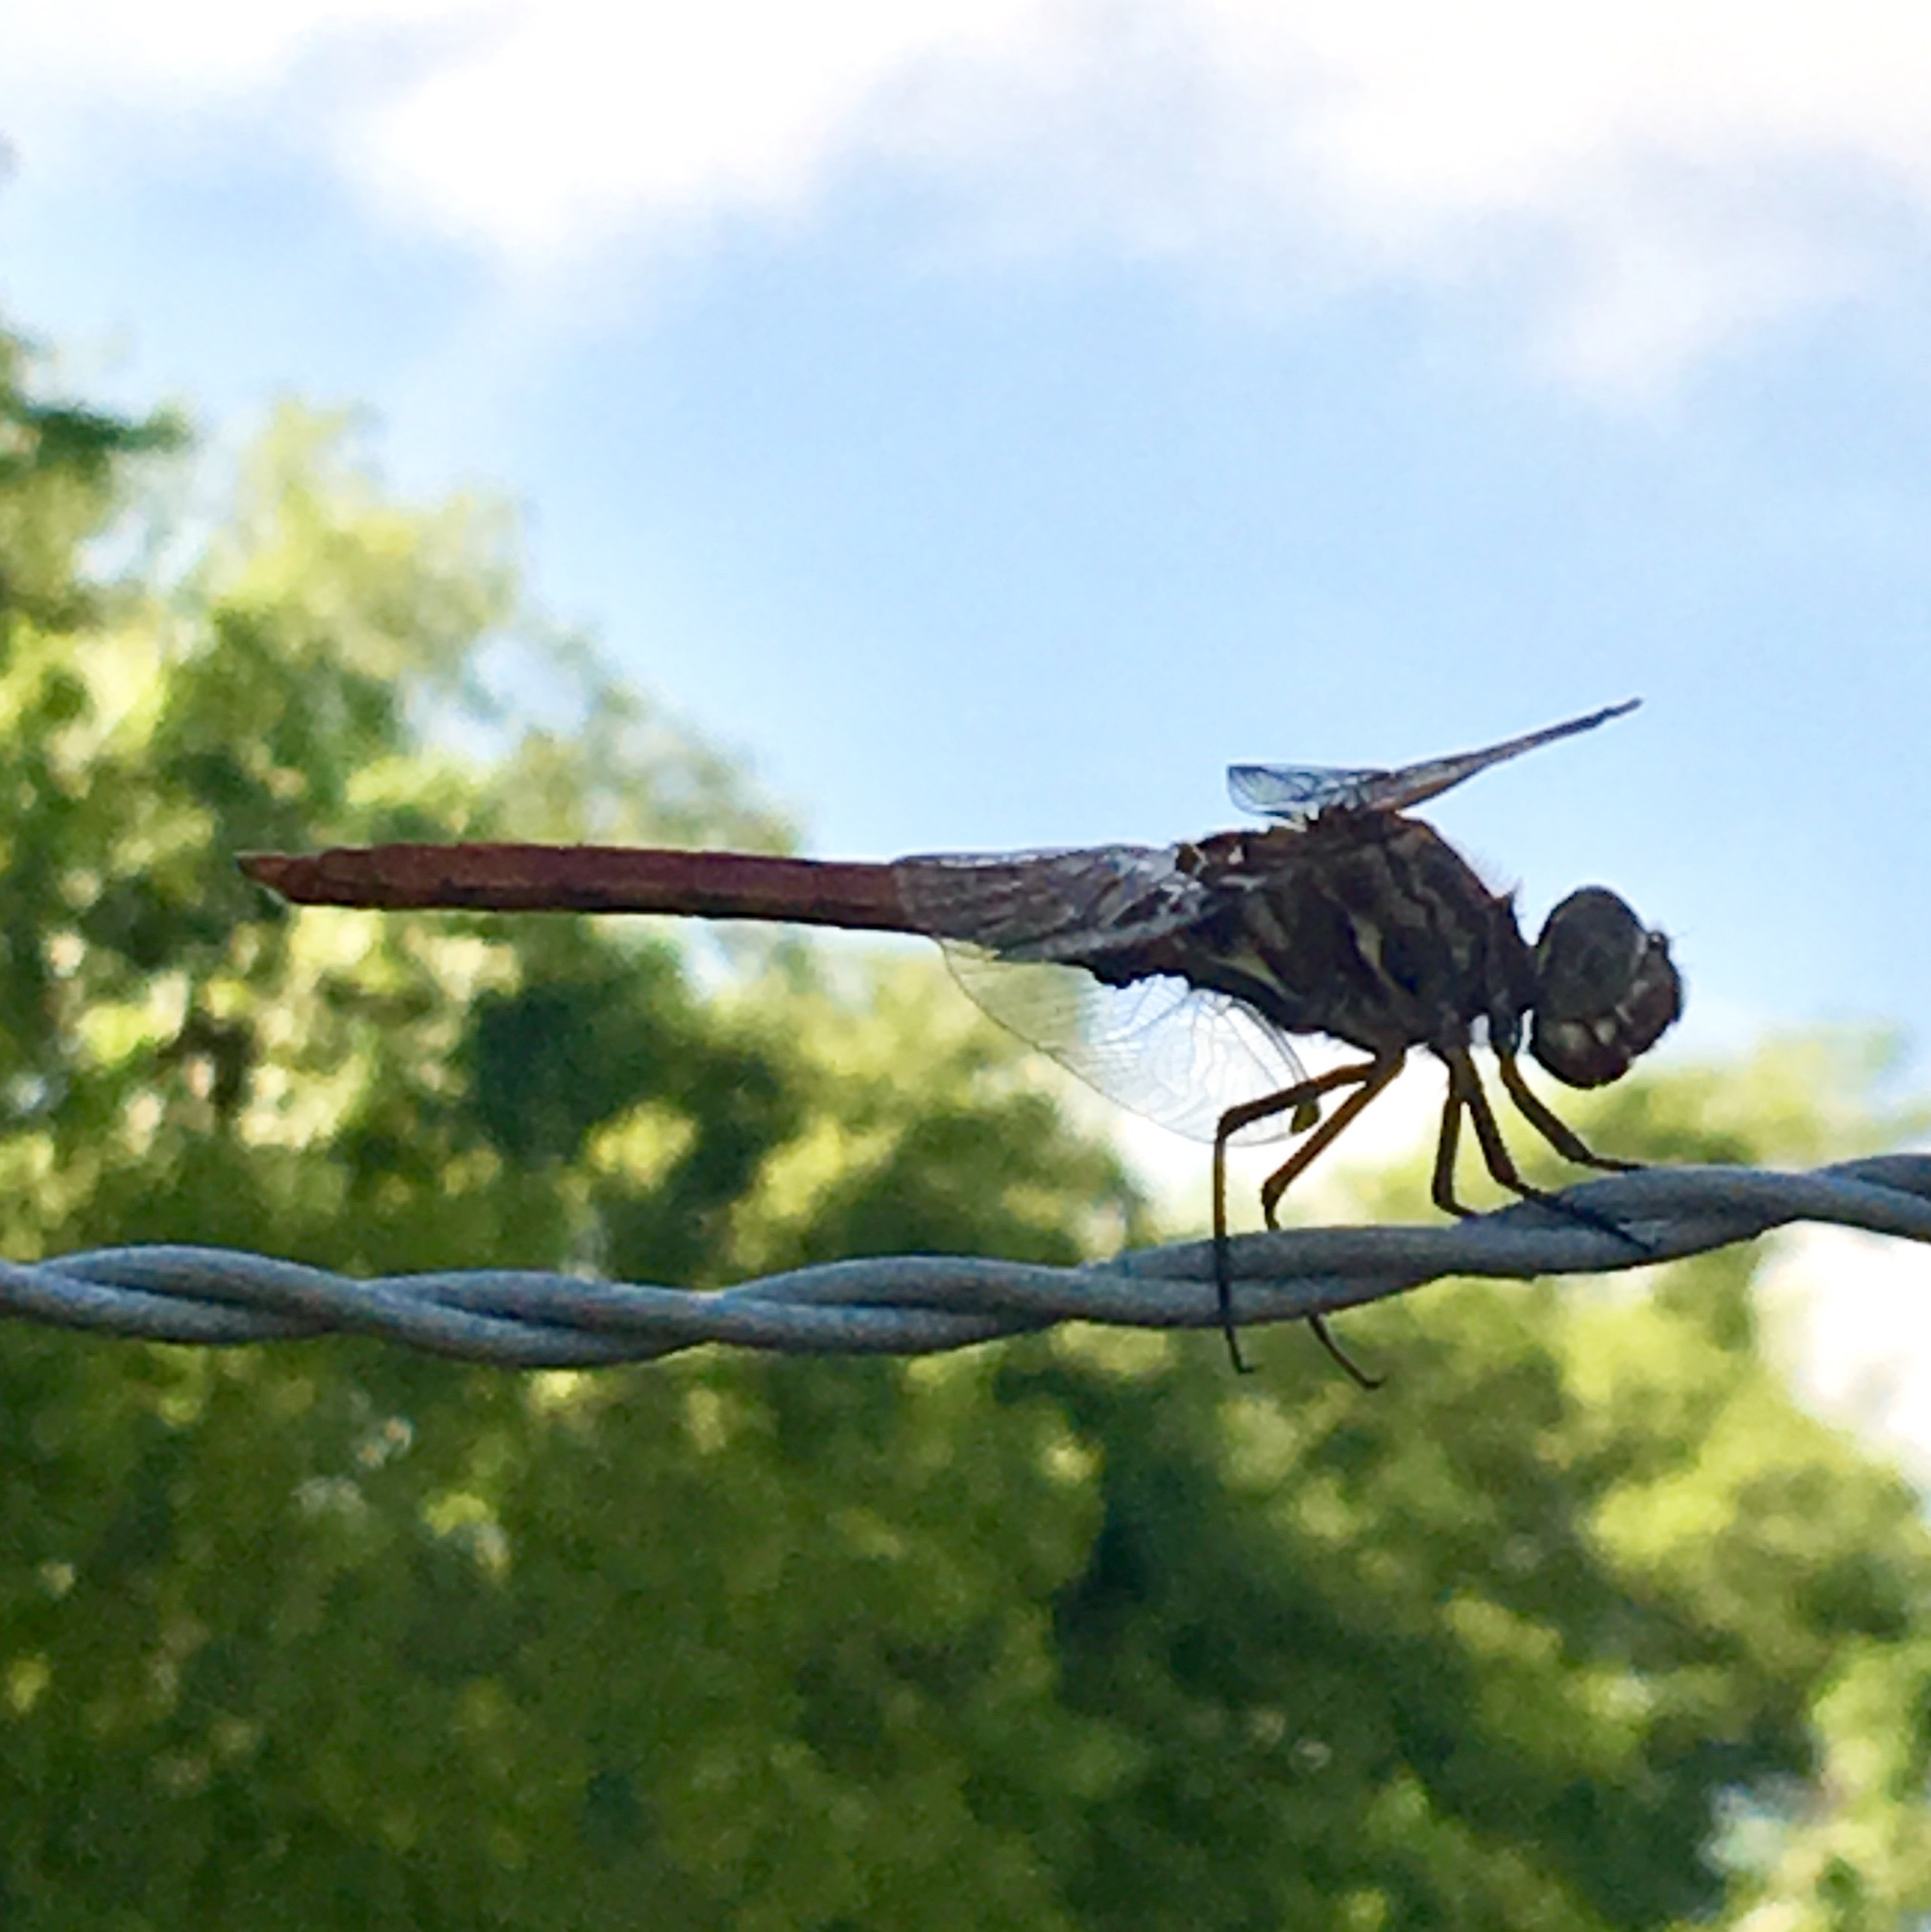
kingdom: Animalia
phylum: Arthropoda
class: Insecta
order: Odonata
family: Libellulidae
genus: Orthemis
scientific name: Orthemis ferruginea
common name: Roseate skimmer
